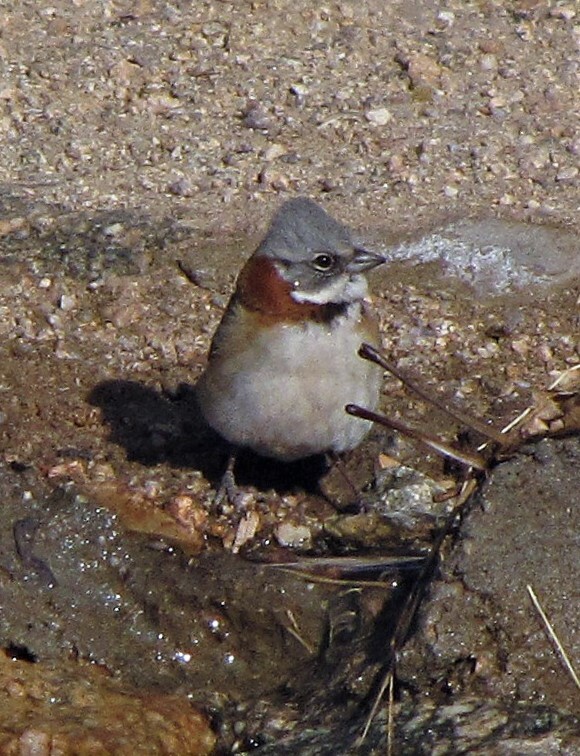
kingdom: Animalia
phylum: Chordata
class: Aves
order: Passeriformes
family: Passerellidae
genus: Zonotrichia
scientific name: Zonotrichia capensis
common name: Rufous-collared sparrow
